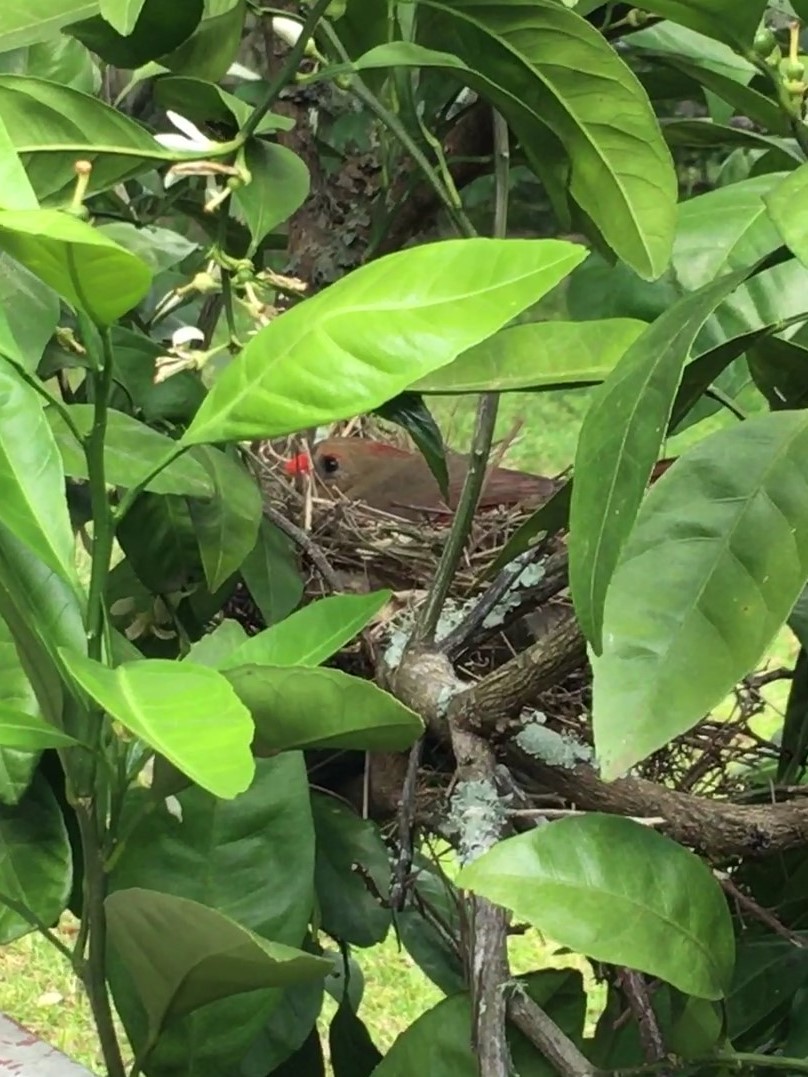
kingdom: Animalia
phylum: Chordata
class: Aves
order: Passeriformes
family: Cardinalidae
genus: Cardinalis
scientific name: Cardinalis cardinalis
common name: Northern cardinal
